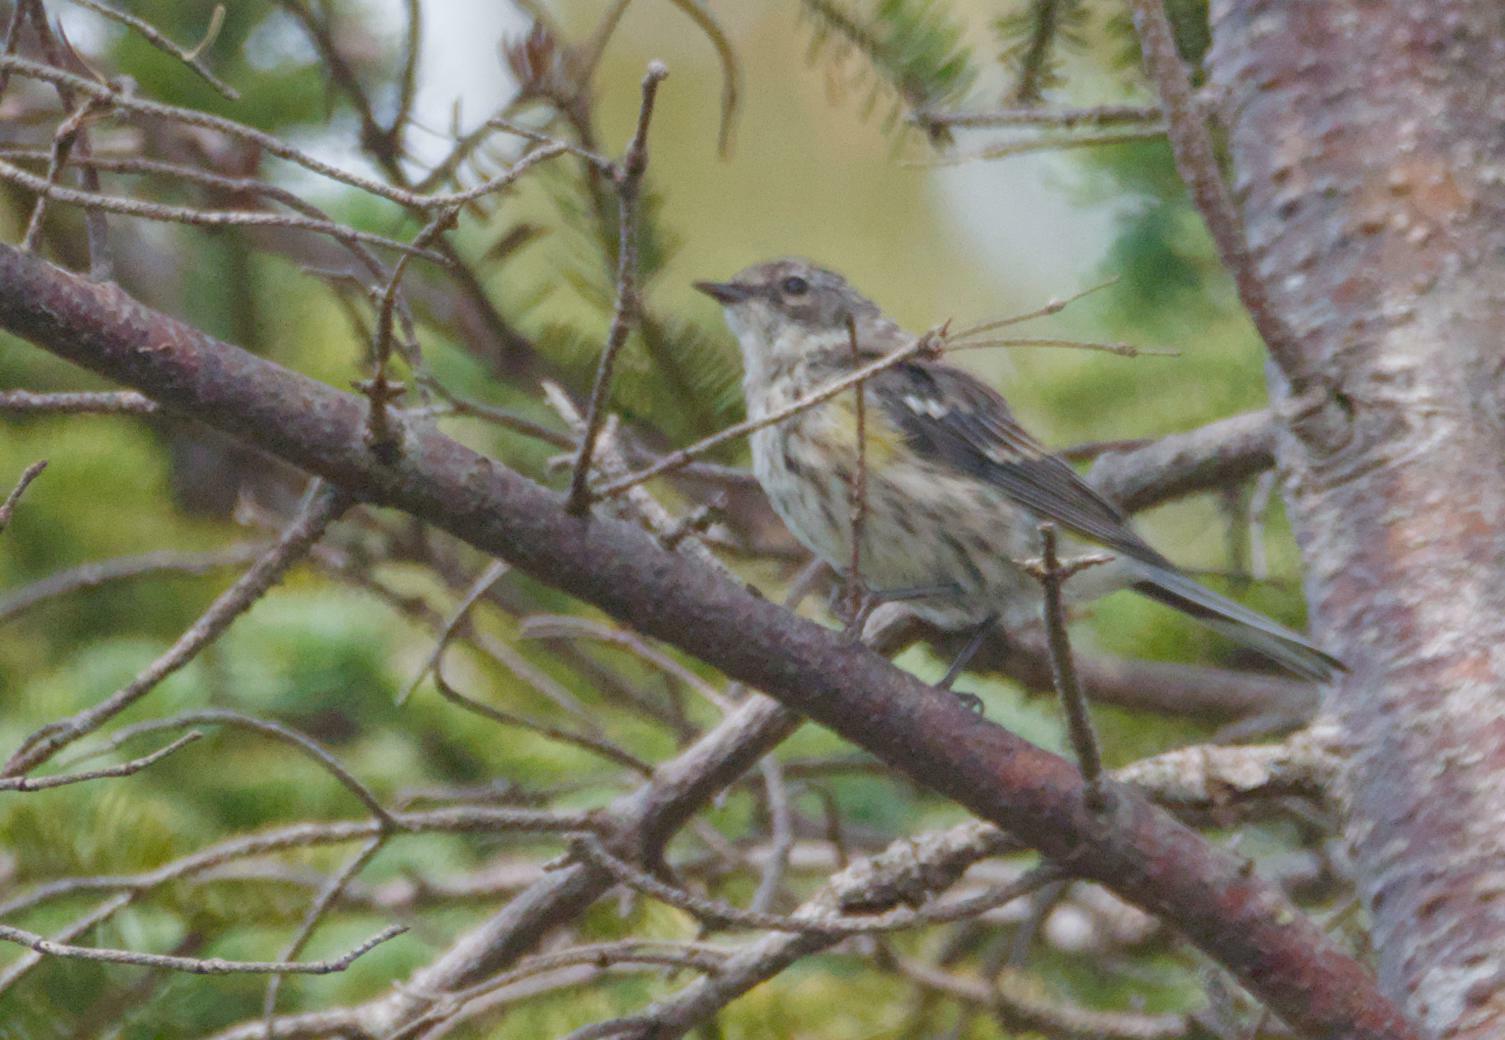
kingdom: Animalia
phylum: Chordata
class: Aves
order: Passeriformes
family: Parulidae
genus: Setophaga
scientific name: Setophaga coronata
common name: Myrtle warbler
